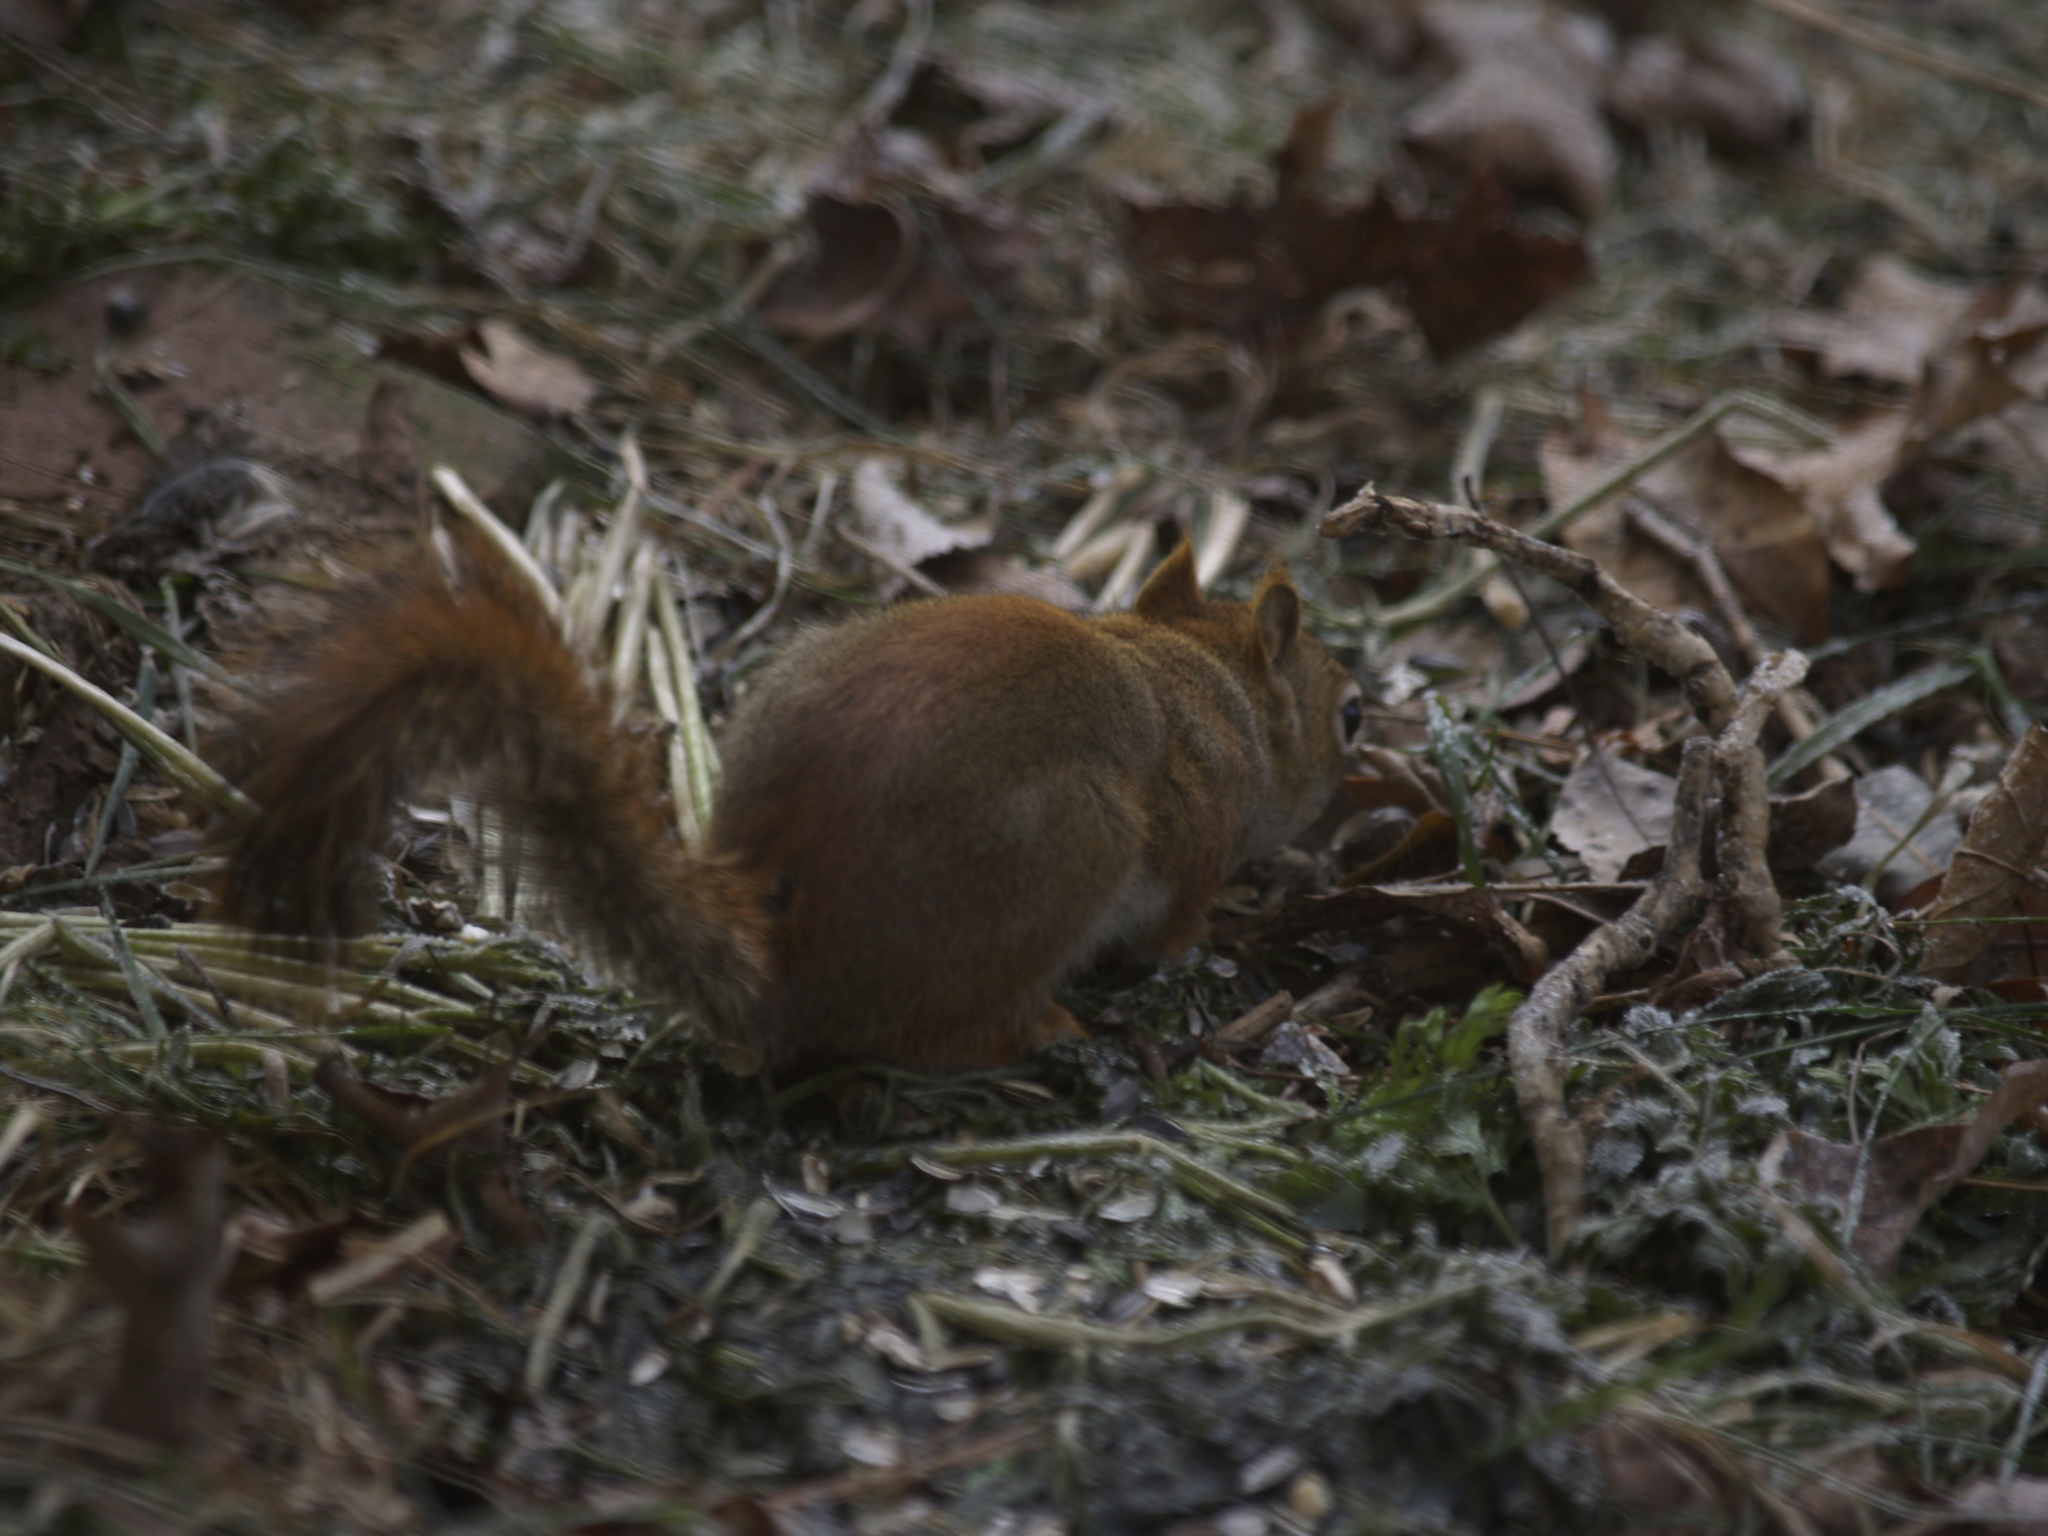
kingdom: Animalia
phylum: Chordata
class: Mammalia
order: Rodentia
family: Sciuridae
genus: Tamiasciurus
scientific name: Tamiasciurus hudsonicus
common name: Red squirrel
